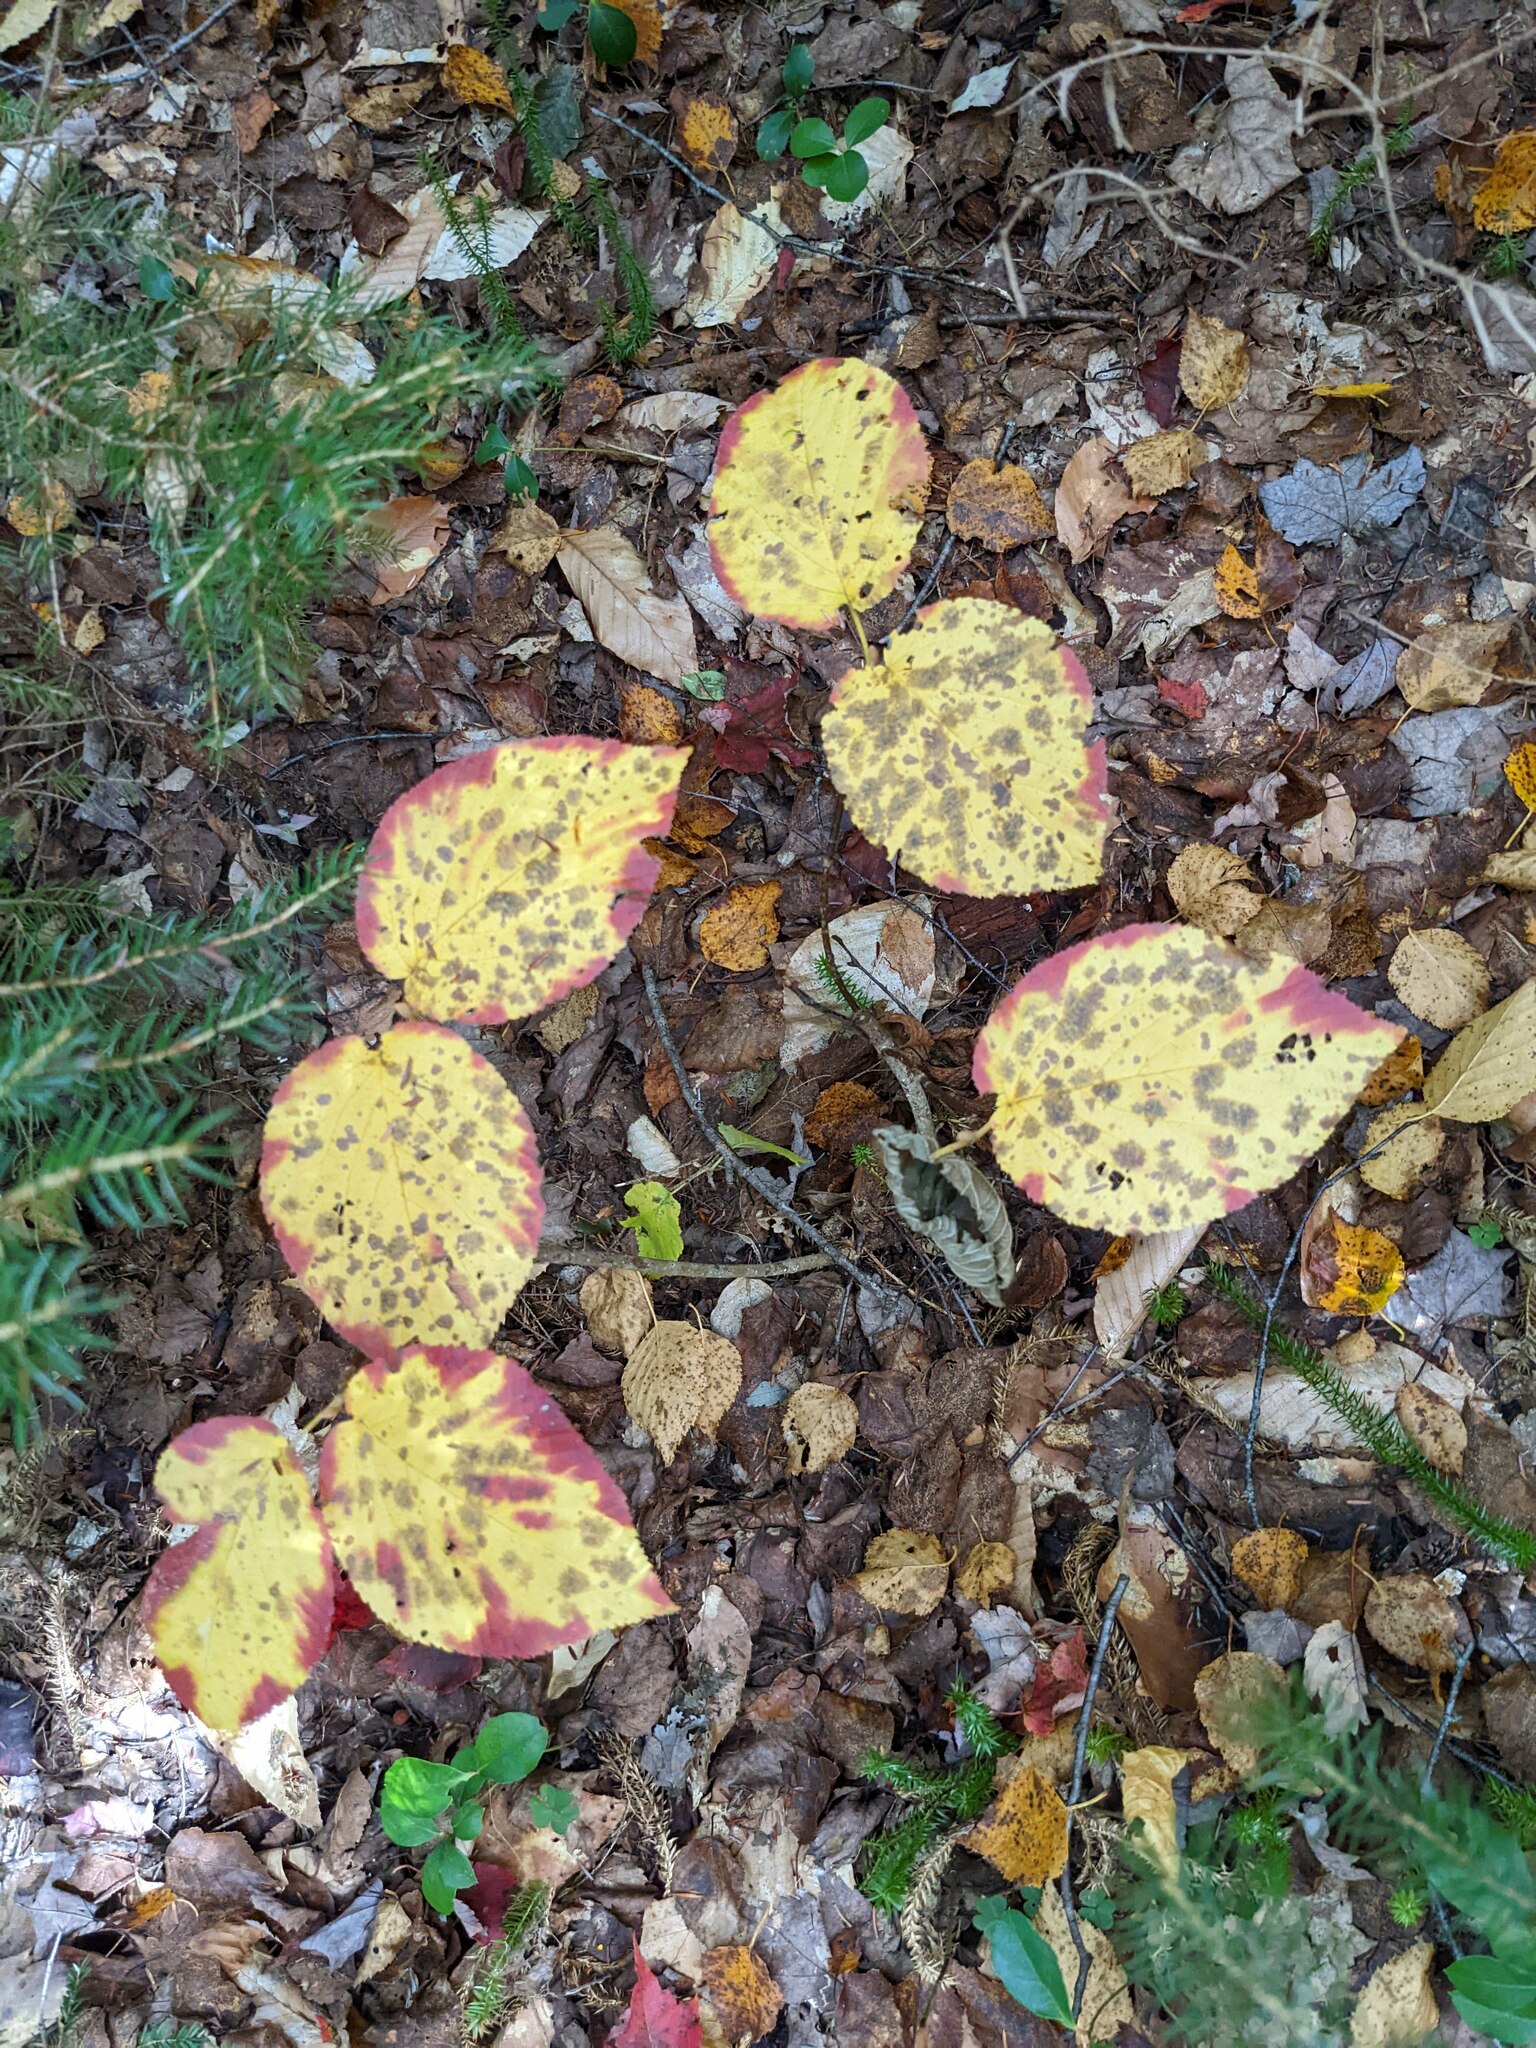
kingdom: Plantae
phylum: Tracheophyta
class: Magnoliopsida
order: Dipsacales
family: Viburnaceae
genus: Viburnum
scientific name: Viburnum lantanoides
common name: Hobblebush
